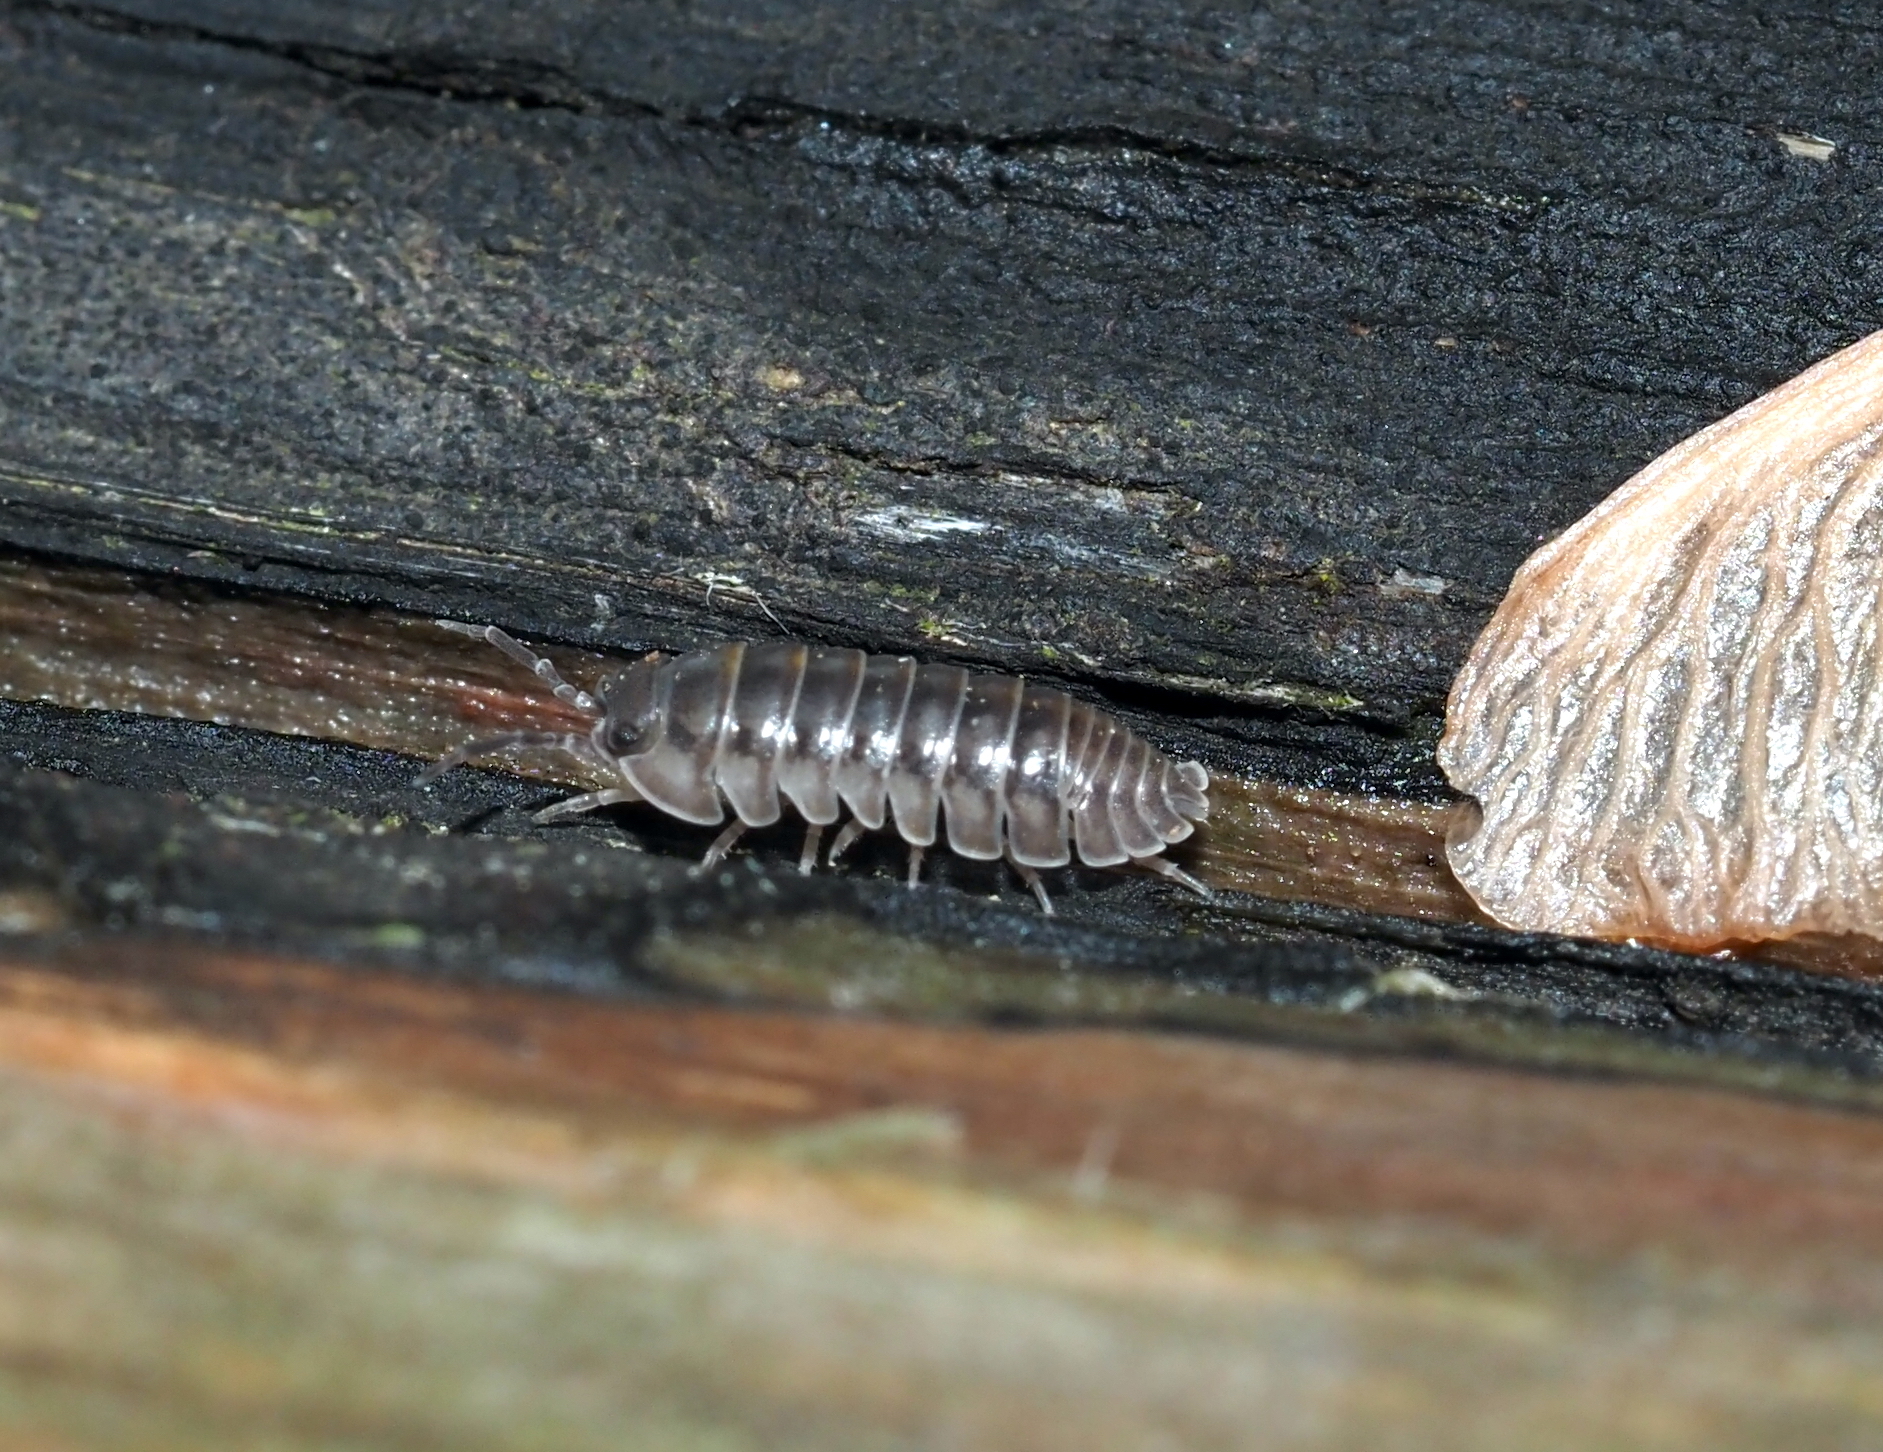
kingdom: Animalia
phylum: Arthropoda
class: Malacostraca
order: Isopoda
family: Armadillidiidae
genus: Armadillidium
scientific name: Armadillidium nasatum
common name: Isopod
